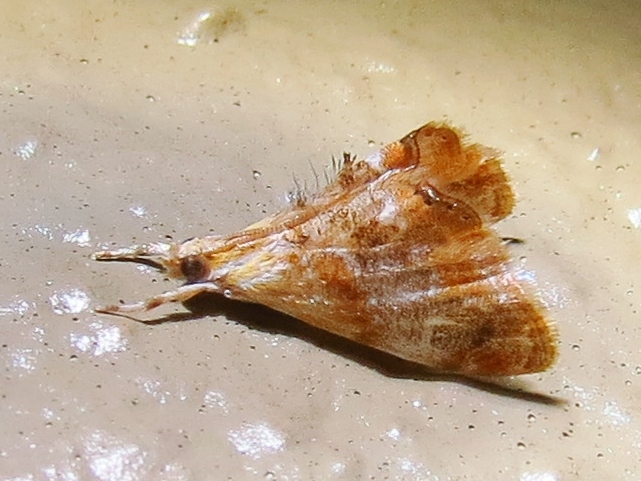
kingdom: Animalia
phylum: Arthropoda
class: Insecta
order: Lepidoptera
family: Crambidae
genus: Dicymolomia
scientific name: Dicymolomia julianalis
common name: Julia's dicymolomia moth
